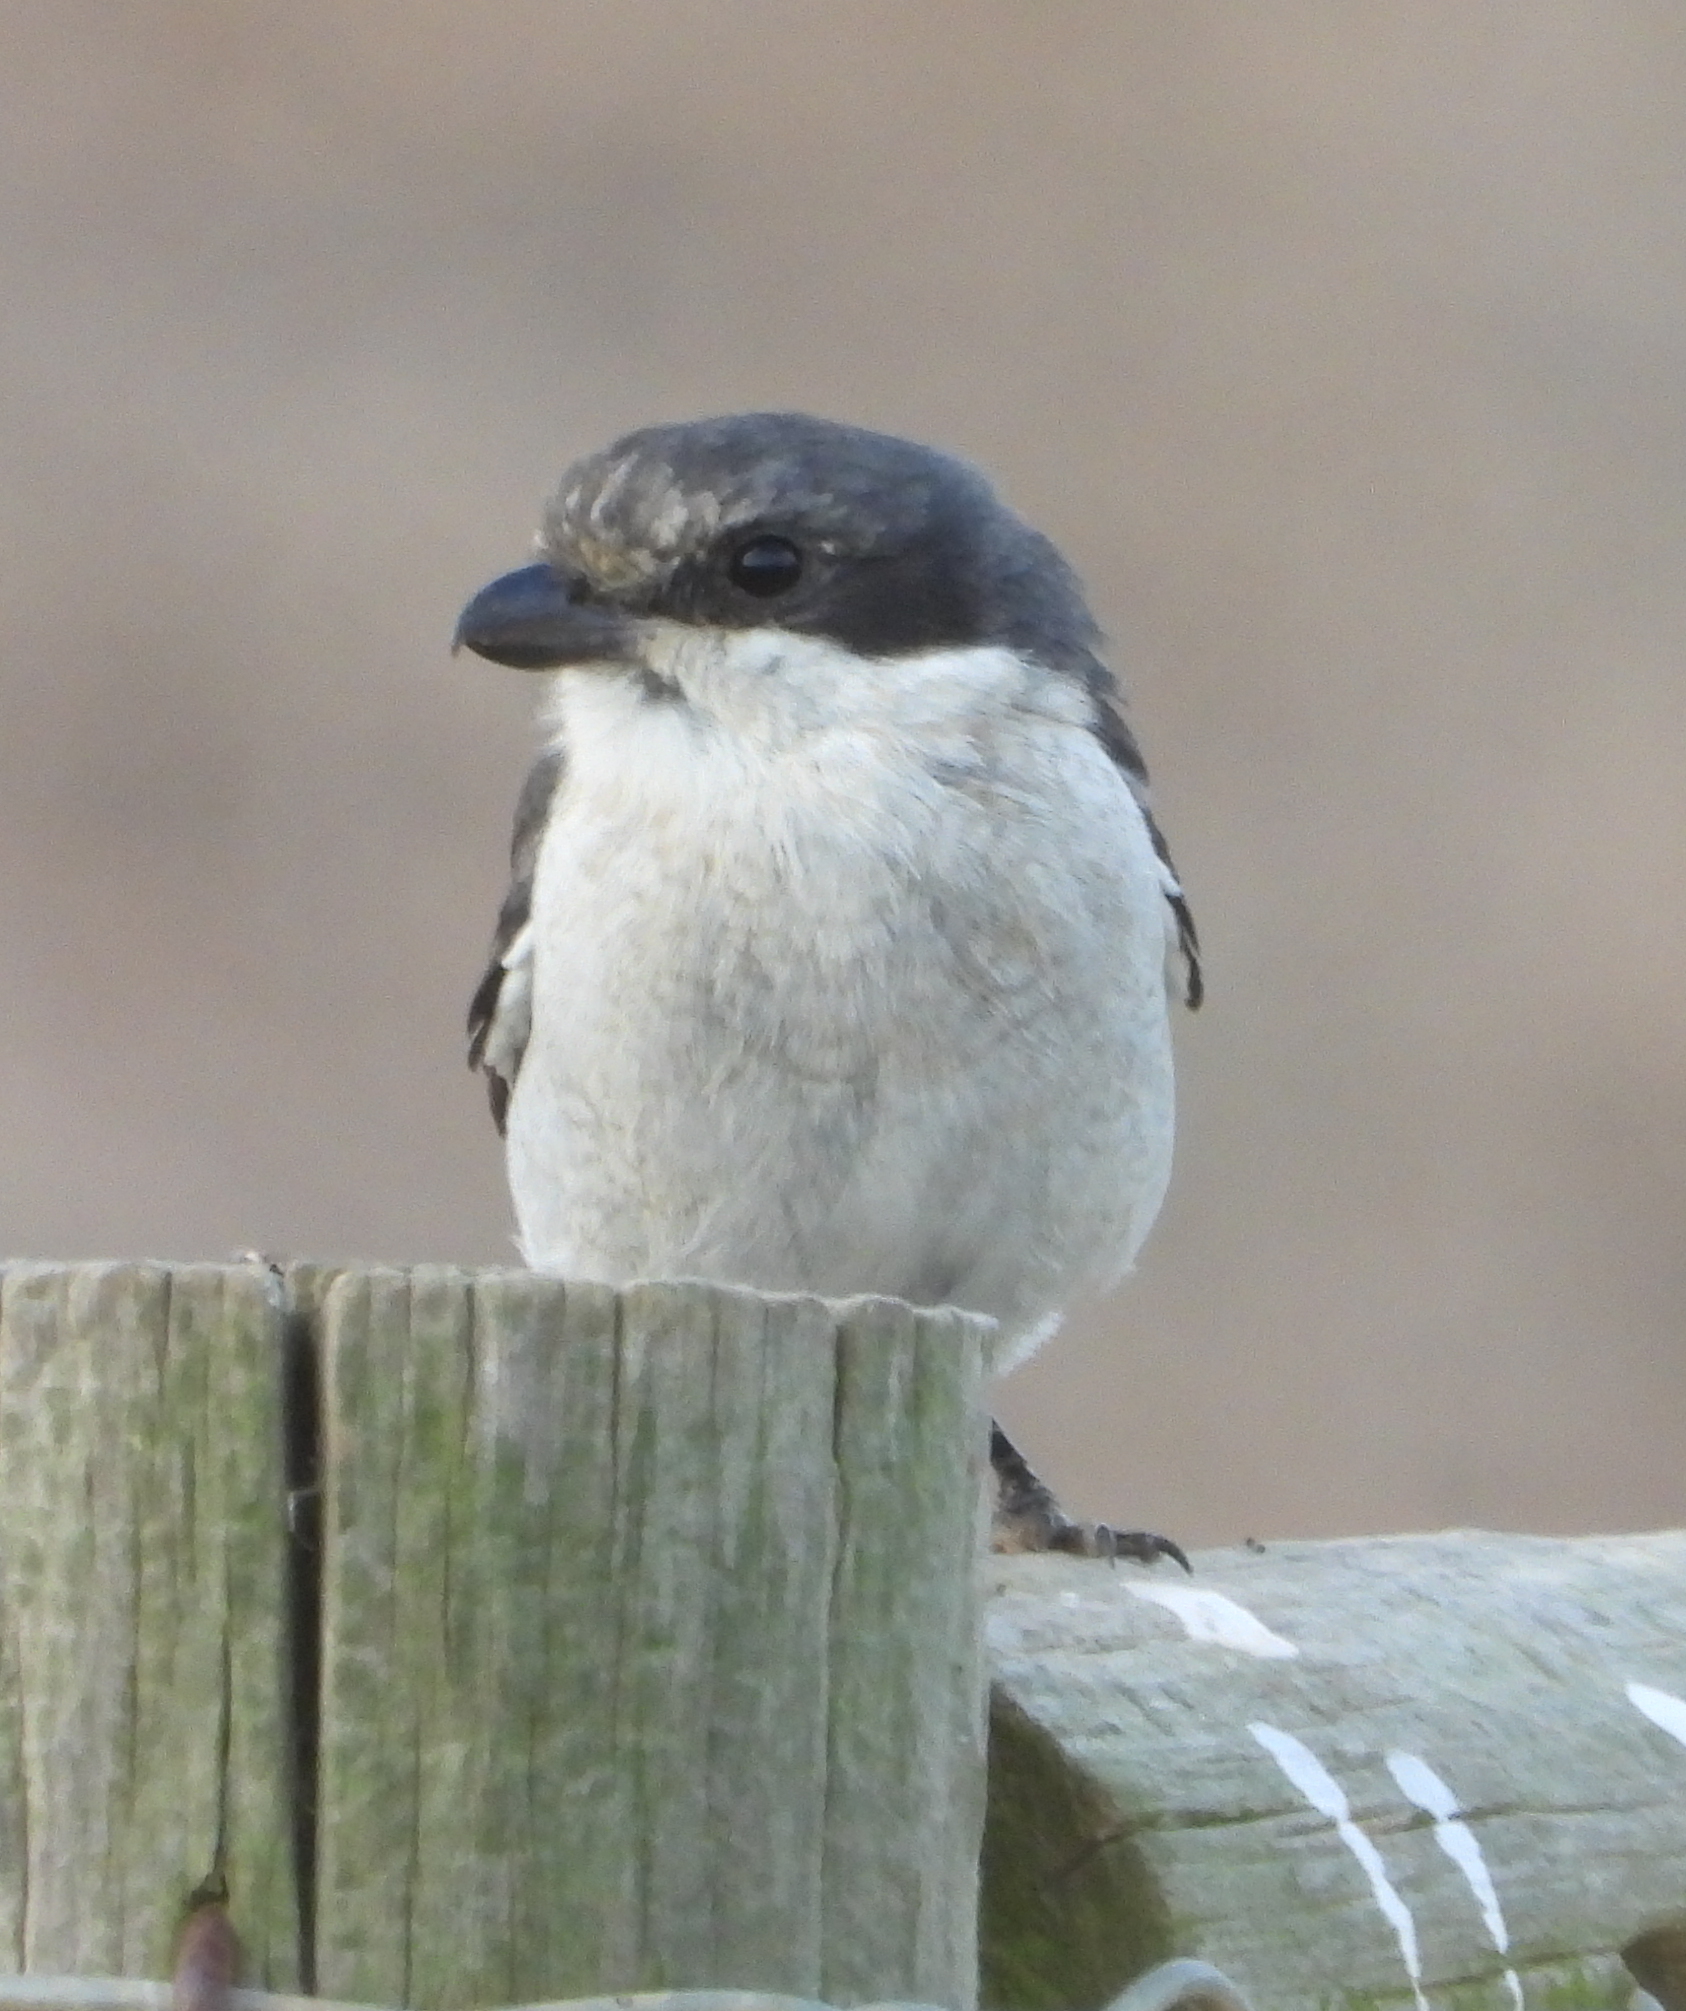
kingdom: Animalia
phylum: Chordata
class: Aves
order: Passeriformes
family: Laniidae
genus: Lanius
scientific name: Lanius collaris
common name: Southern fiscal
